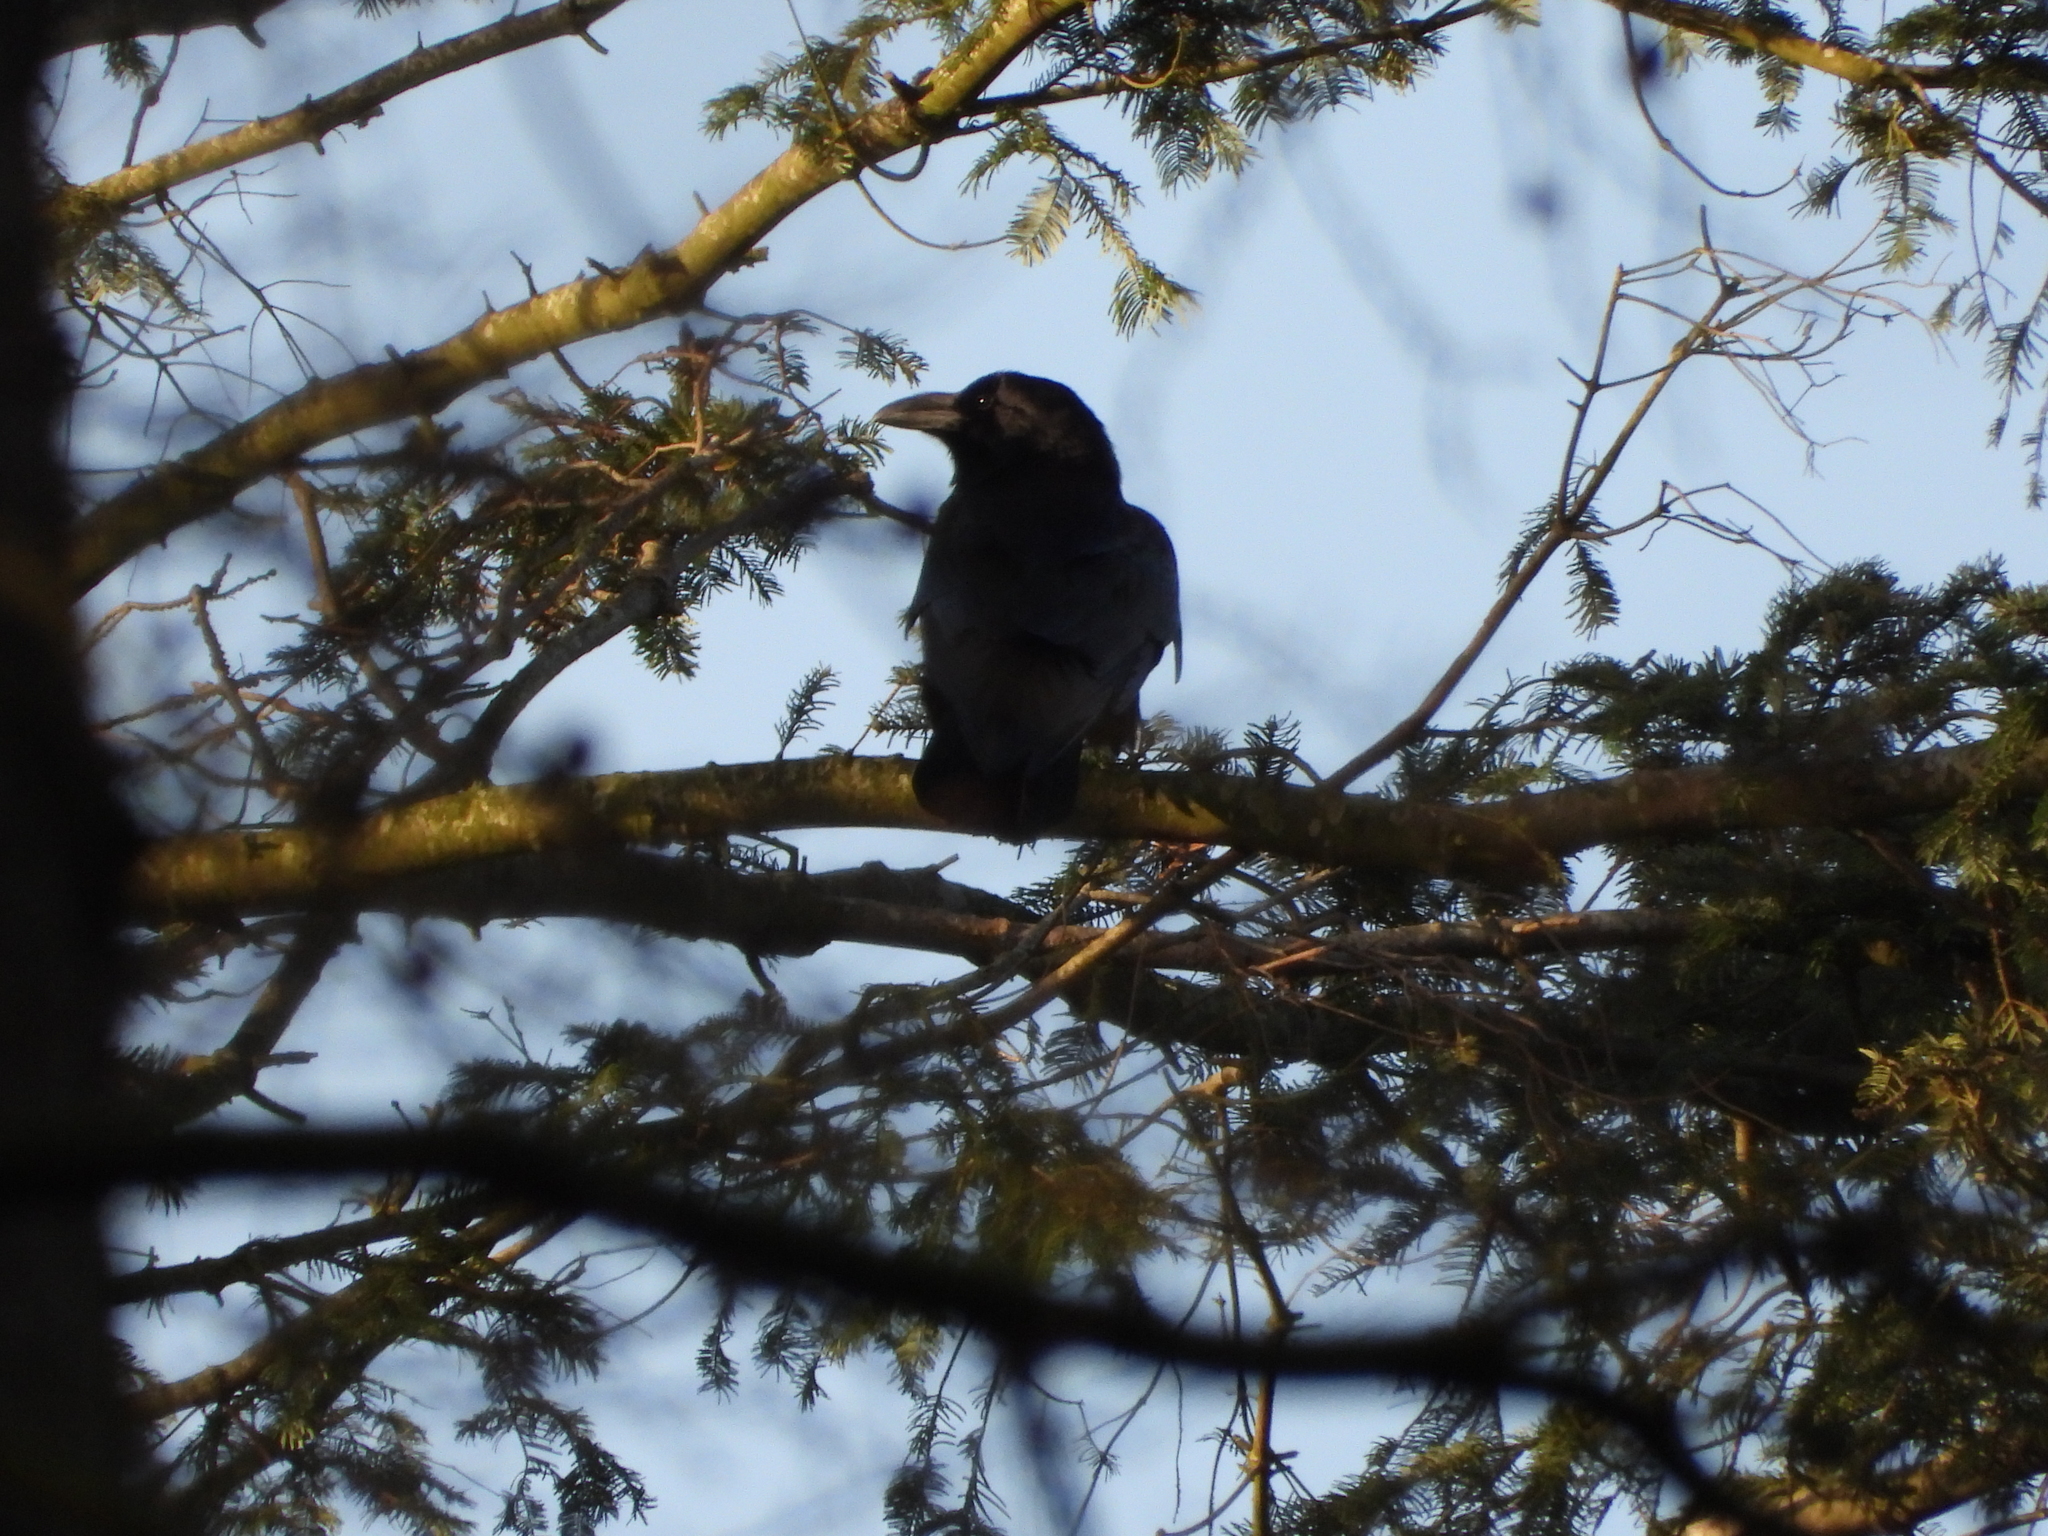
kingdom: Animalia
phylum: Chordata
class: Aves
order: Passeriformes
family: Corvidae
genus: Corvus
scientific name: Corvus corax
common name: Common raven
